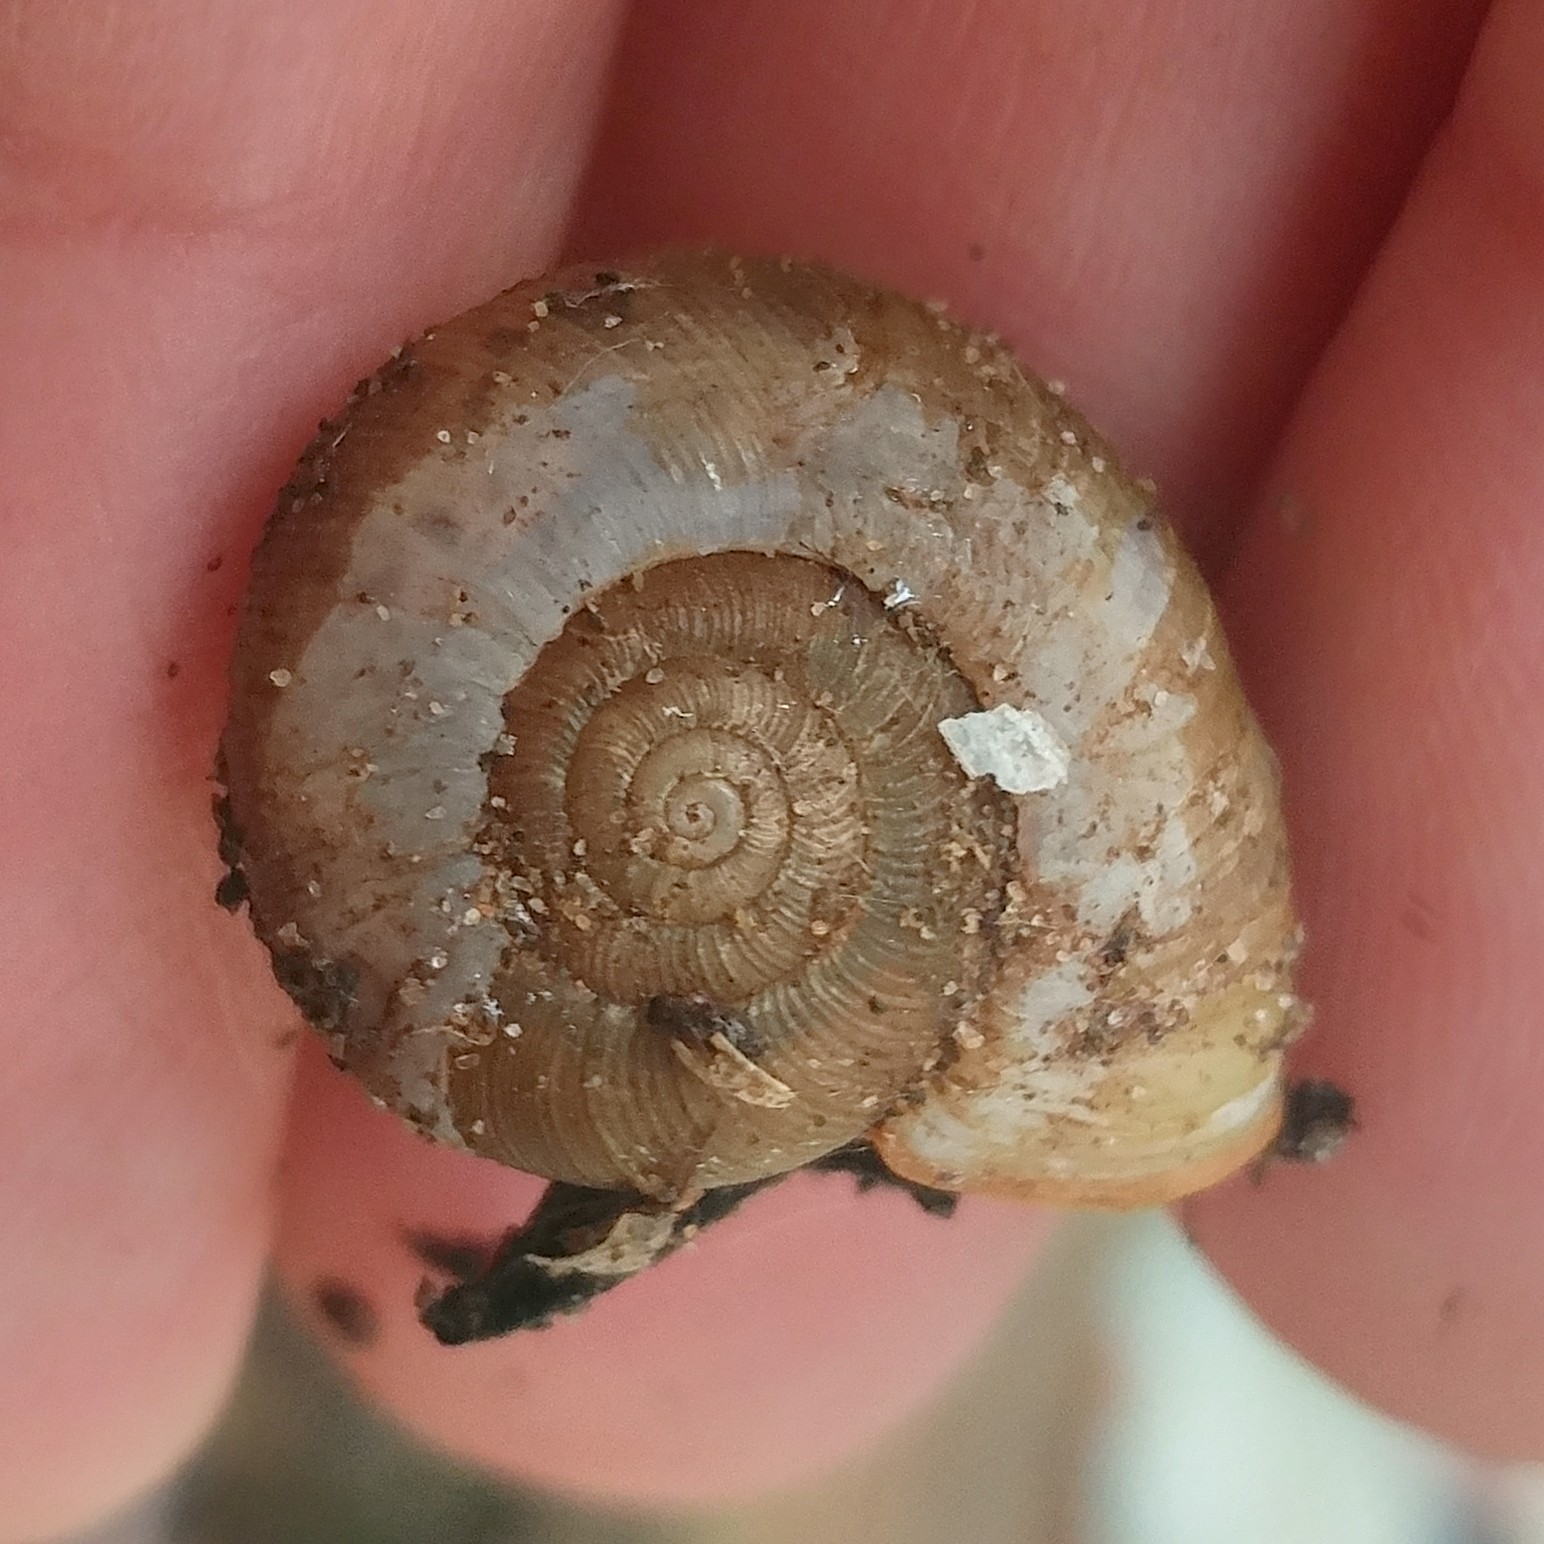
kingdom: Animalia
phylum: Mollusca
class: Gastropoda
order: Stylommatophora
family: Haplotrematidae
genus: Ancotrema
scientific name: Ancotrema sportella
